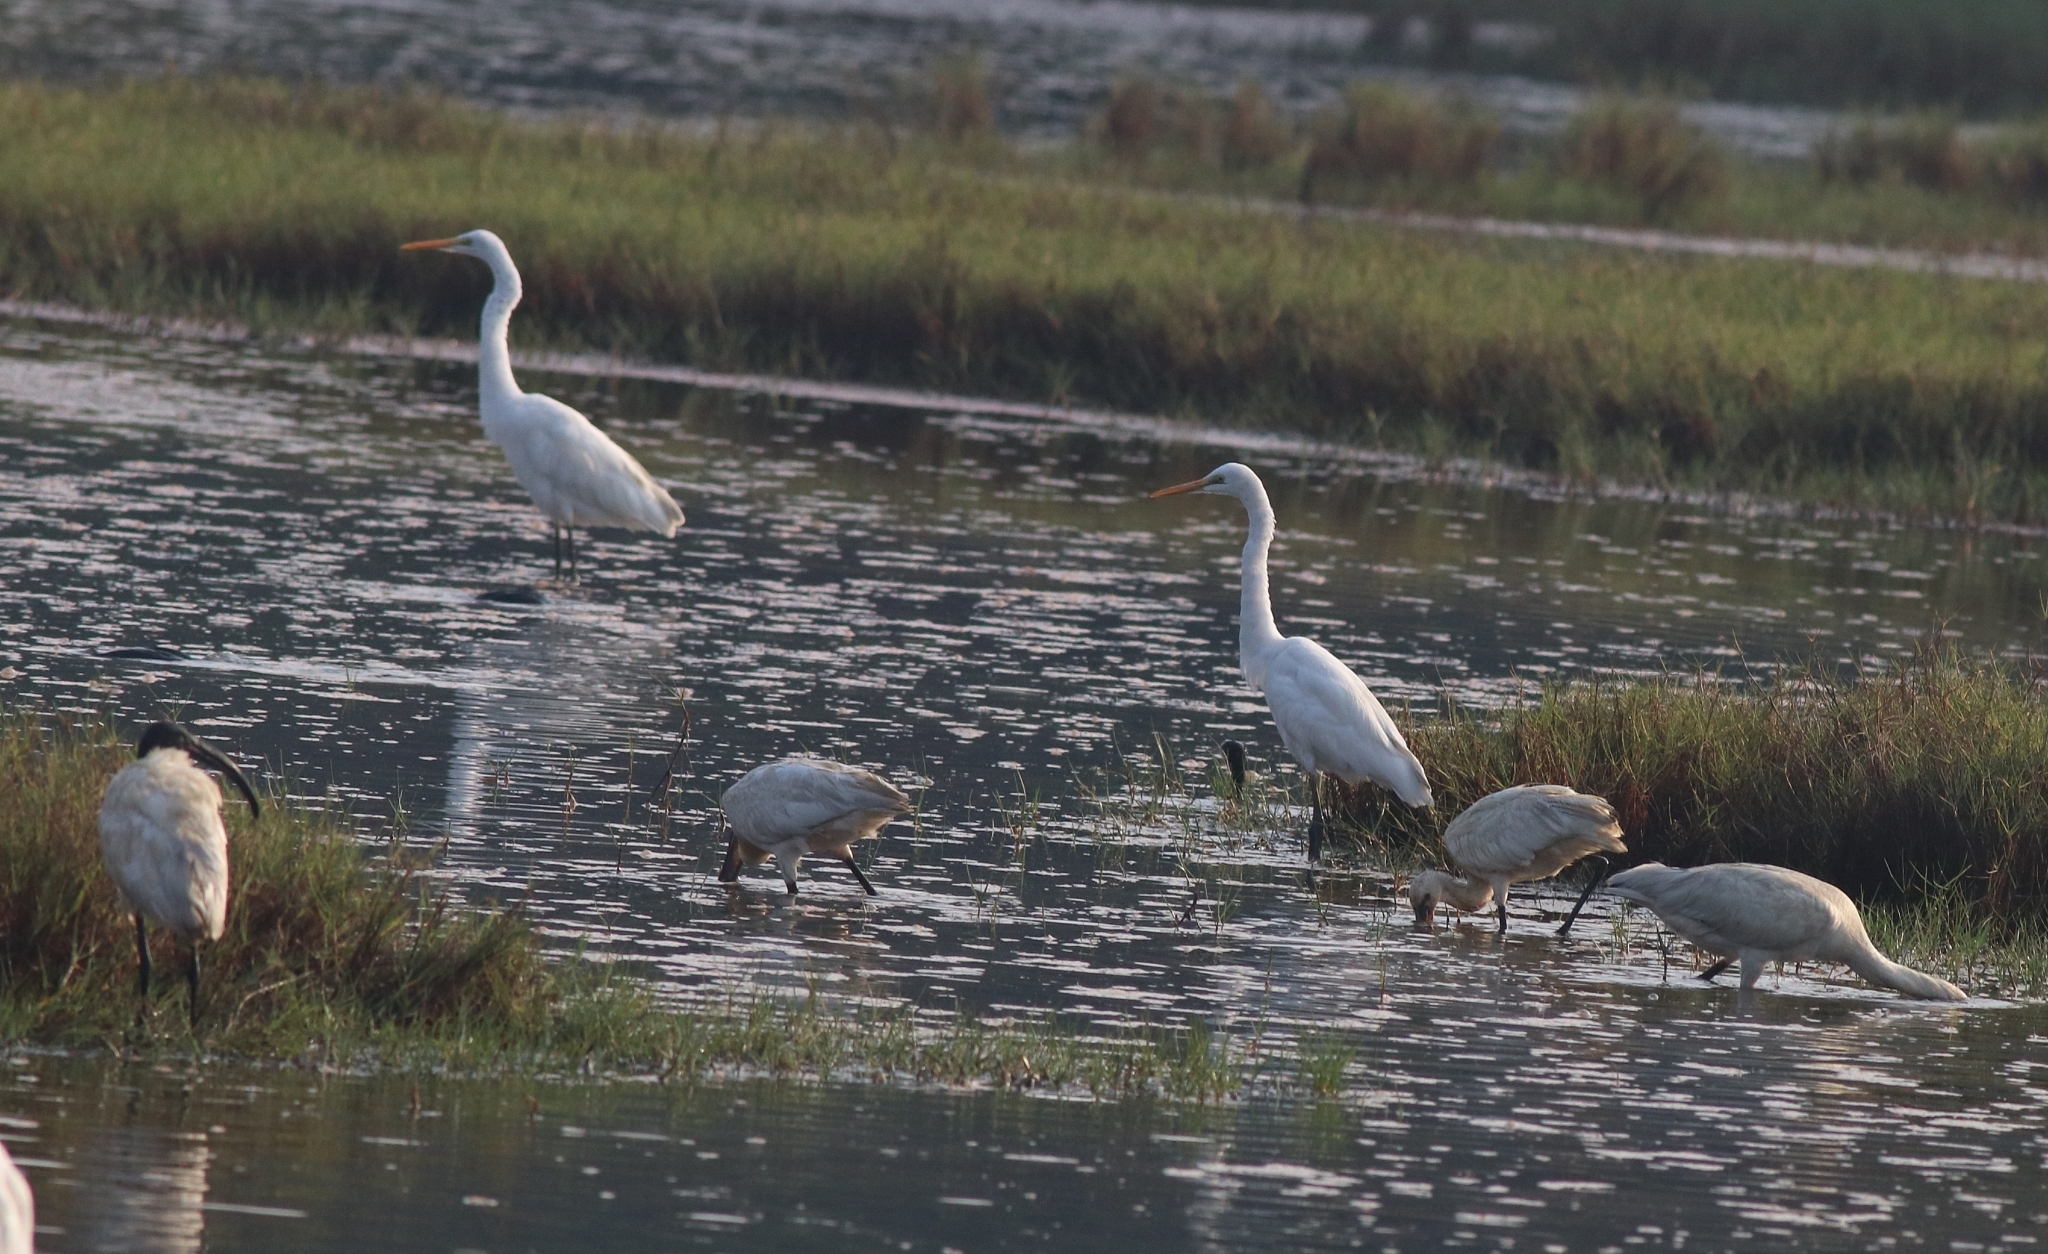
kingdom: Animalia
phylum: Chordata
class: Aves
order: Pelecaniformes
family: Ardeidae
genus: Ardea
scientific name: Ardea alba
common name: Great egret
